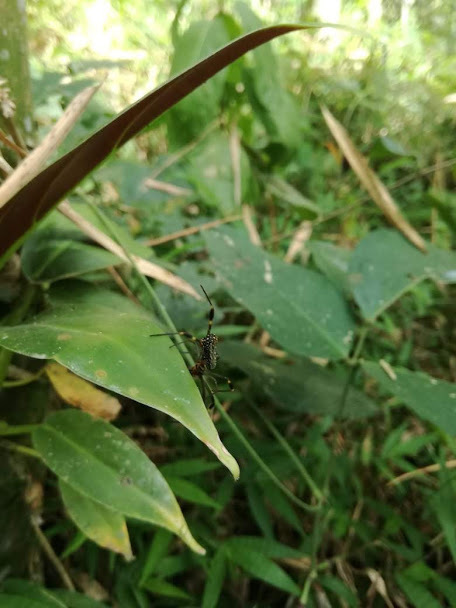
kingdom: Animalia
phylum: Arthropoda
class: Arachnida
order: Araneae
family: Araneidae
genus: Trichonephila
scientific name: Trichonephila clavipes
